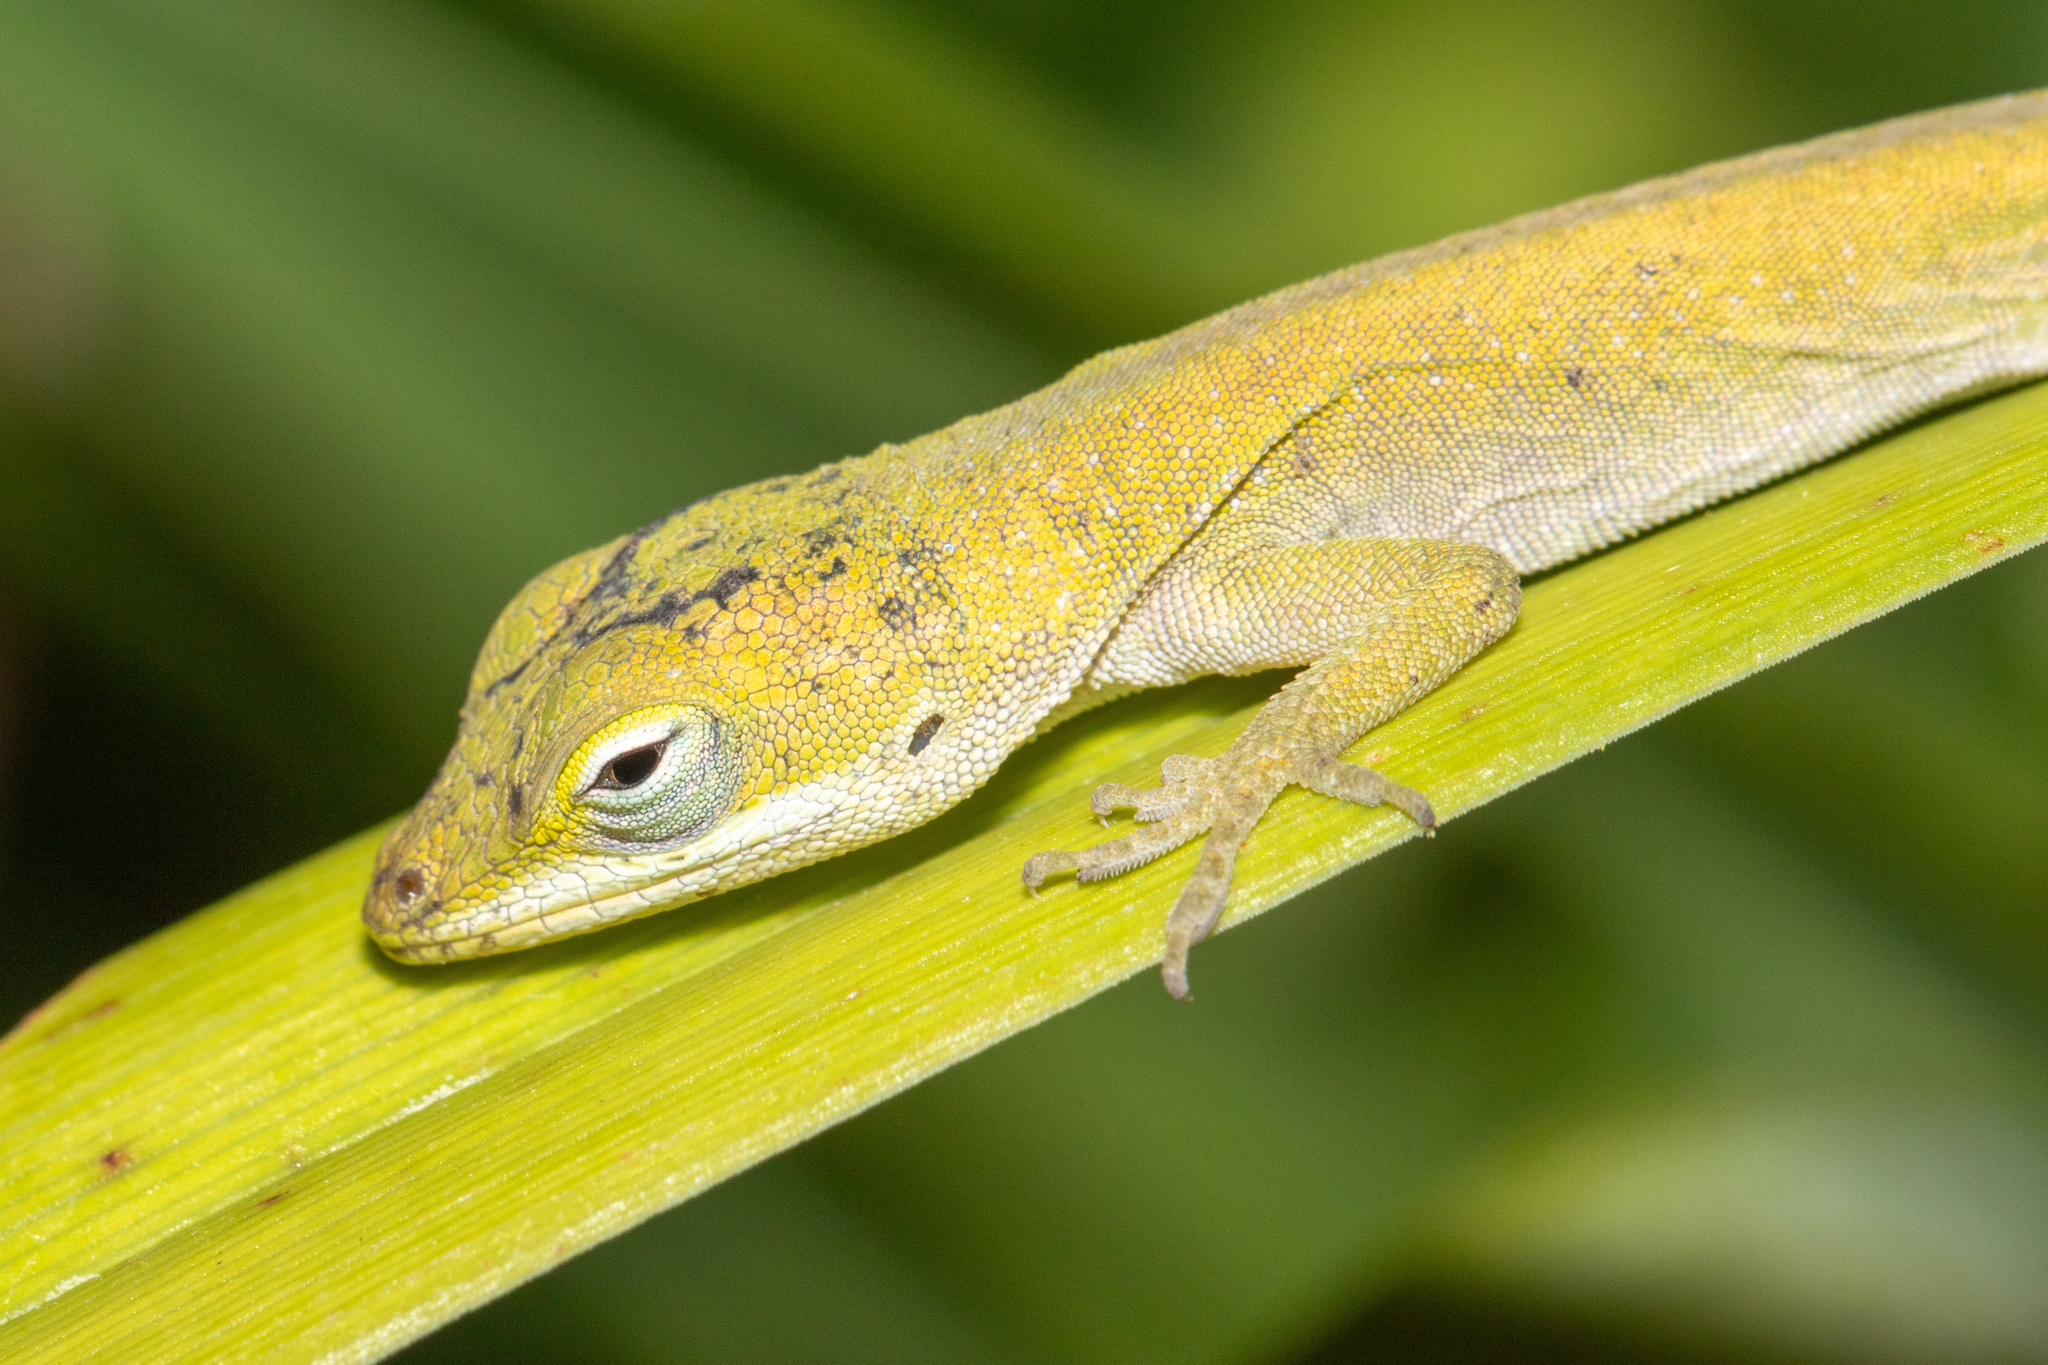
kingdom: Animalia
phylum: Chordata
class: Squamata
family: Dactyloidae
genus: Anolis
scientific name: Anolis carolinensis
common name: Green anole
